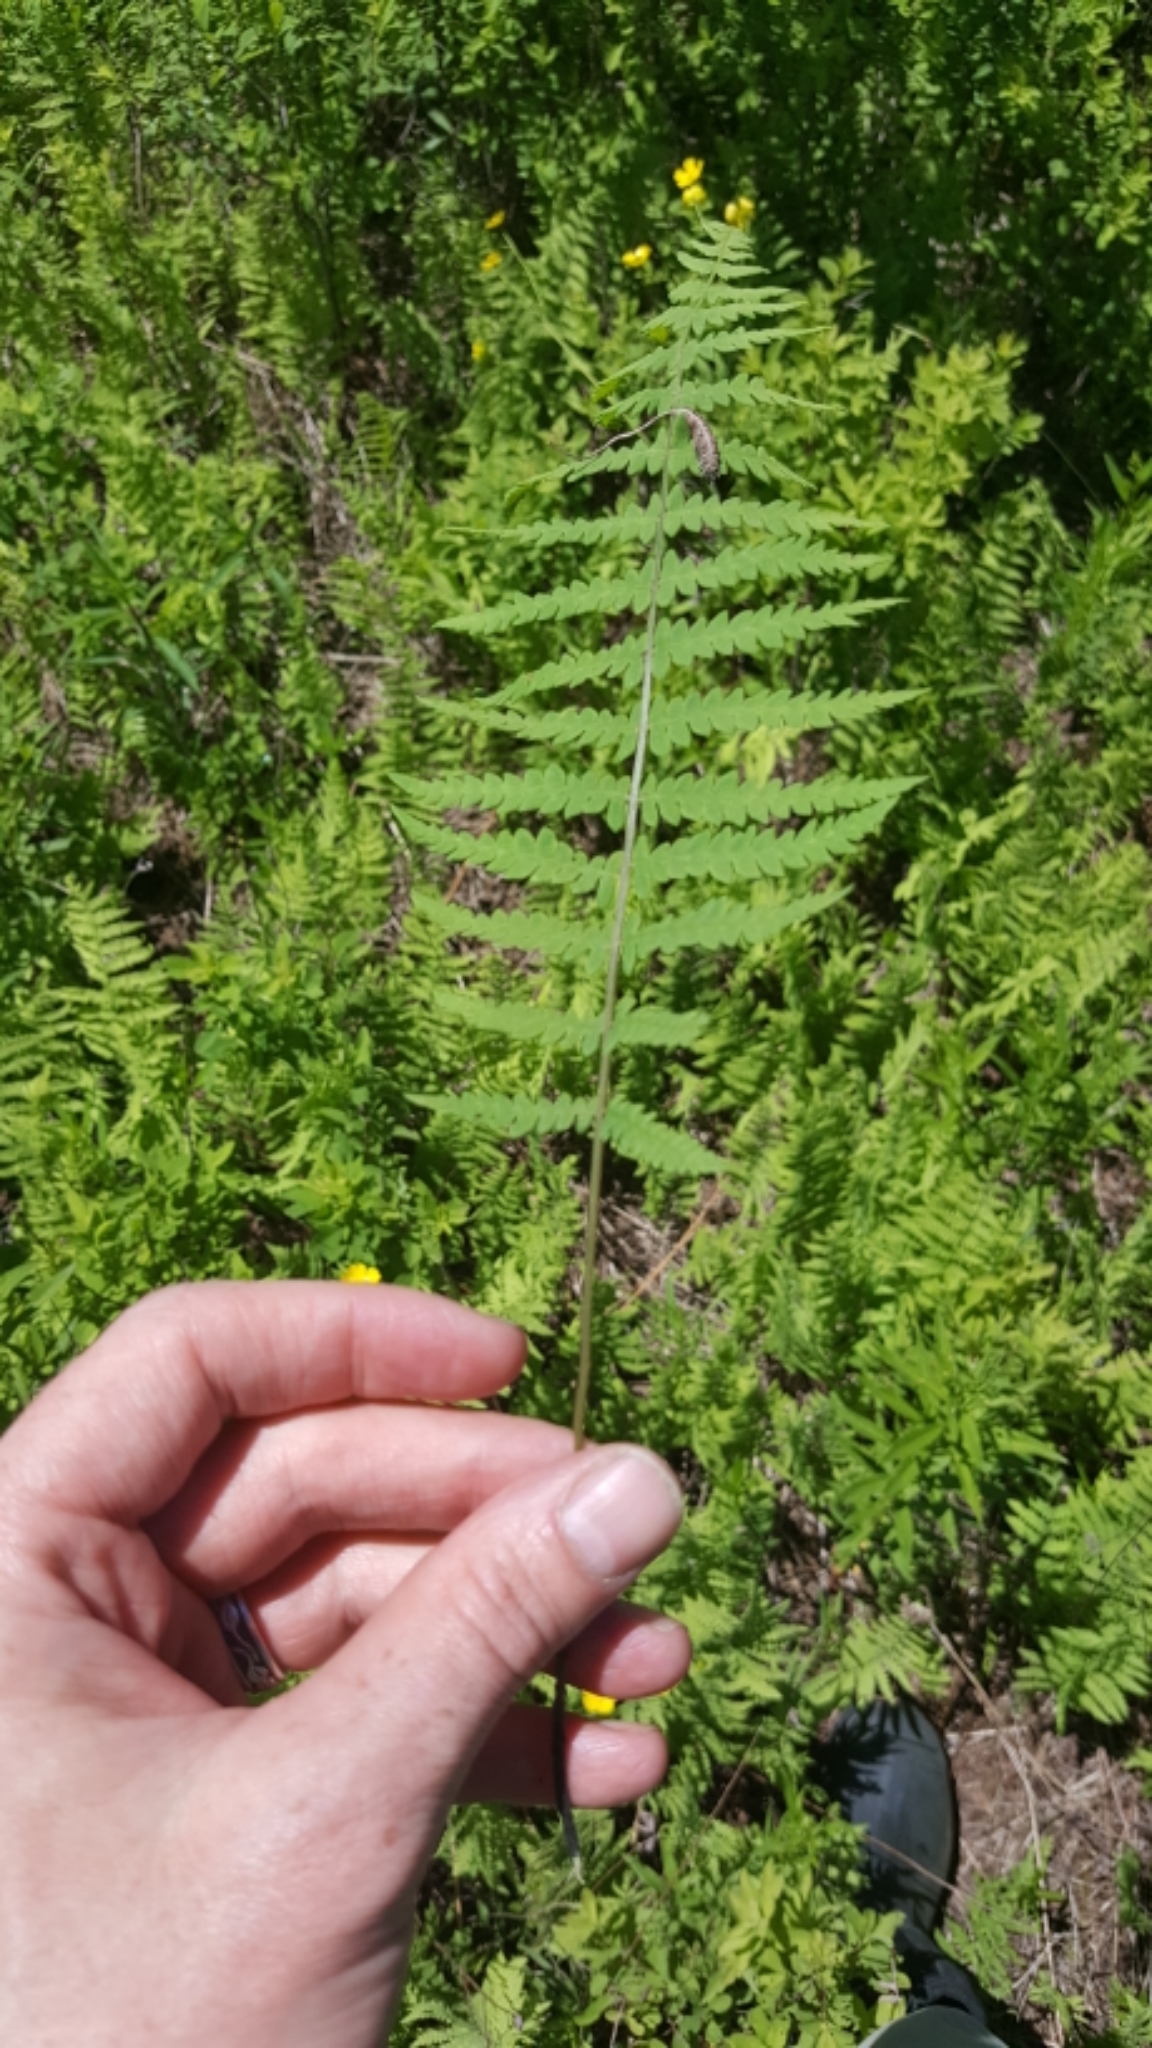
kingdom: Plantae
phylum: Tracheophyta
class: Polypodiopsida
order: Polypodiales
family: Thelypteridaceae
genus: Thelypteris
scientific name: Thelypteris palustris
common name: Marsh fern
